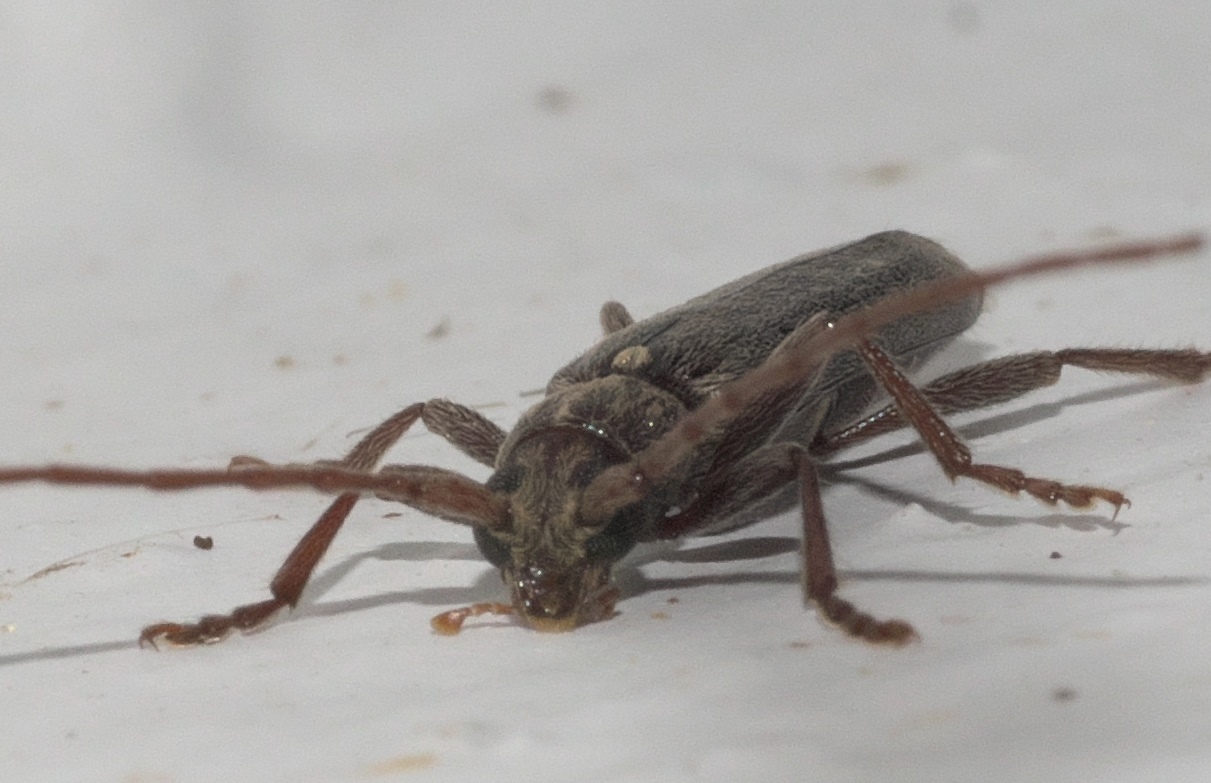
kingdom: Animalia
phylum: Arthropoda
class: Insecta
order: Coleoptera
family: Cerambycidae
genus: Anelaphus
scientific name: Anelaphus villosus
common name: Twig pruner
